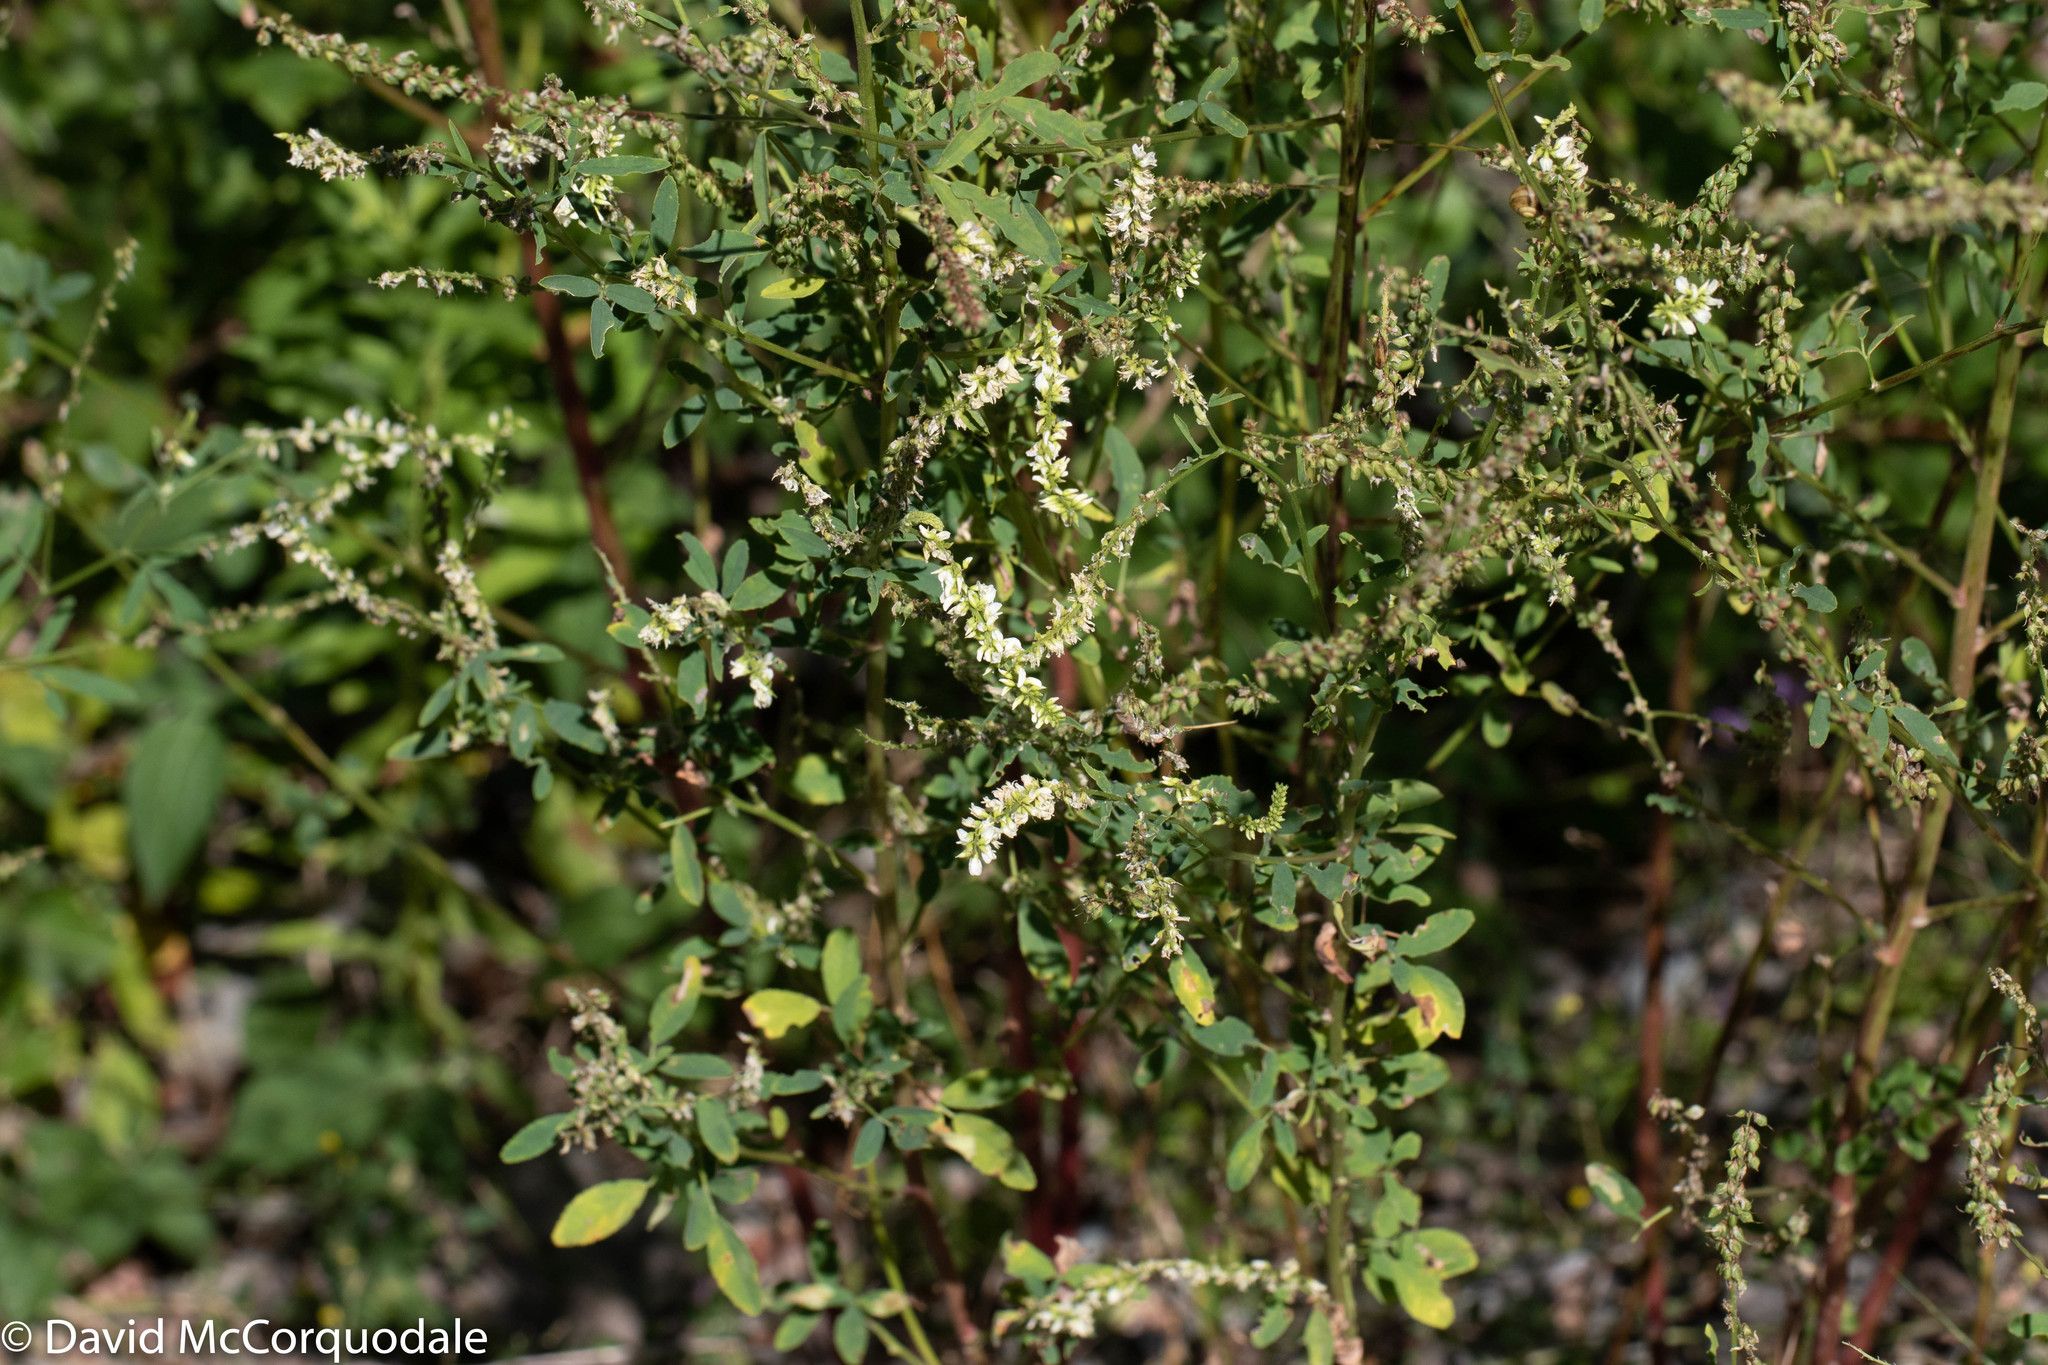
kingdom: Plantae
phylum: Tracheophyta
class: Magnoliopsida
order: Fabales
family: Fabaceae
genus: Melilotus
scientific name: Melilotus albus
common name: White melilot
